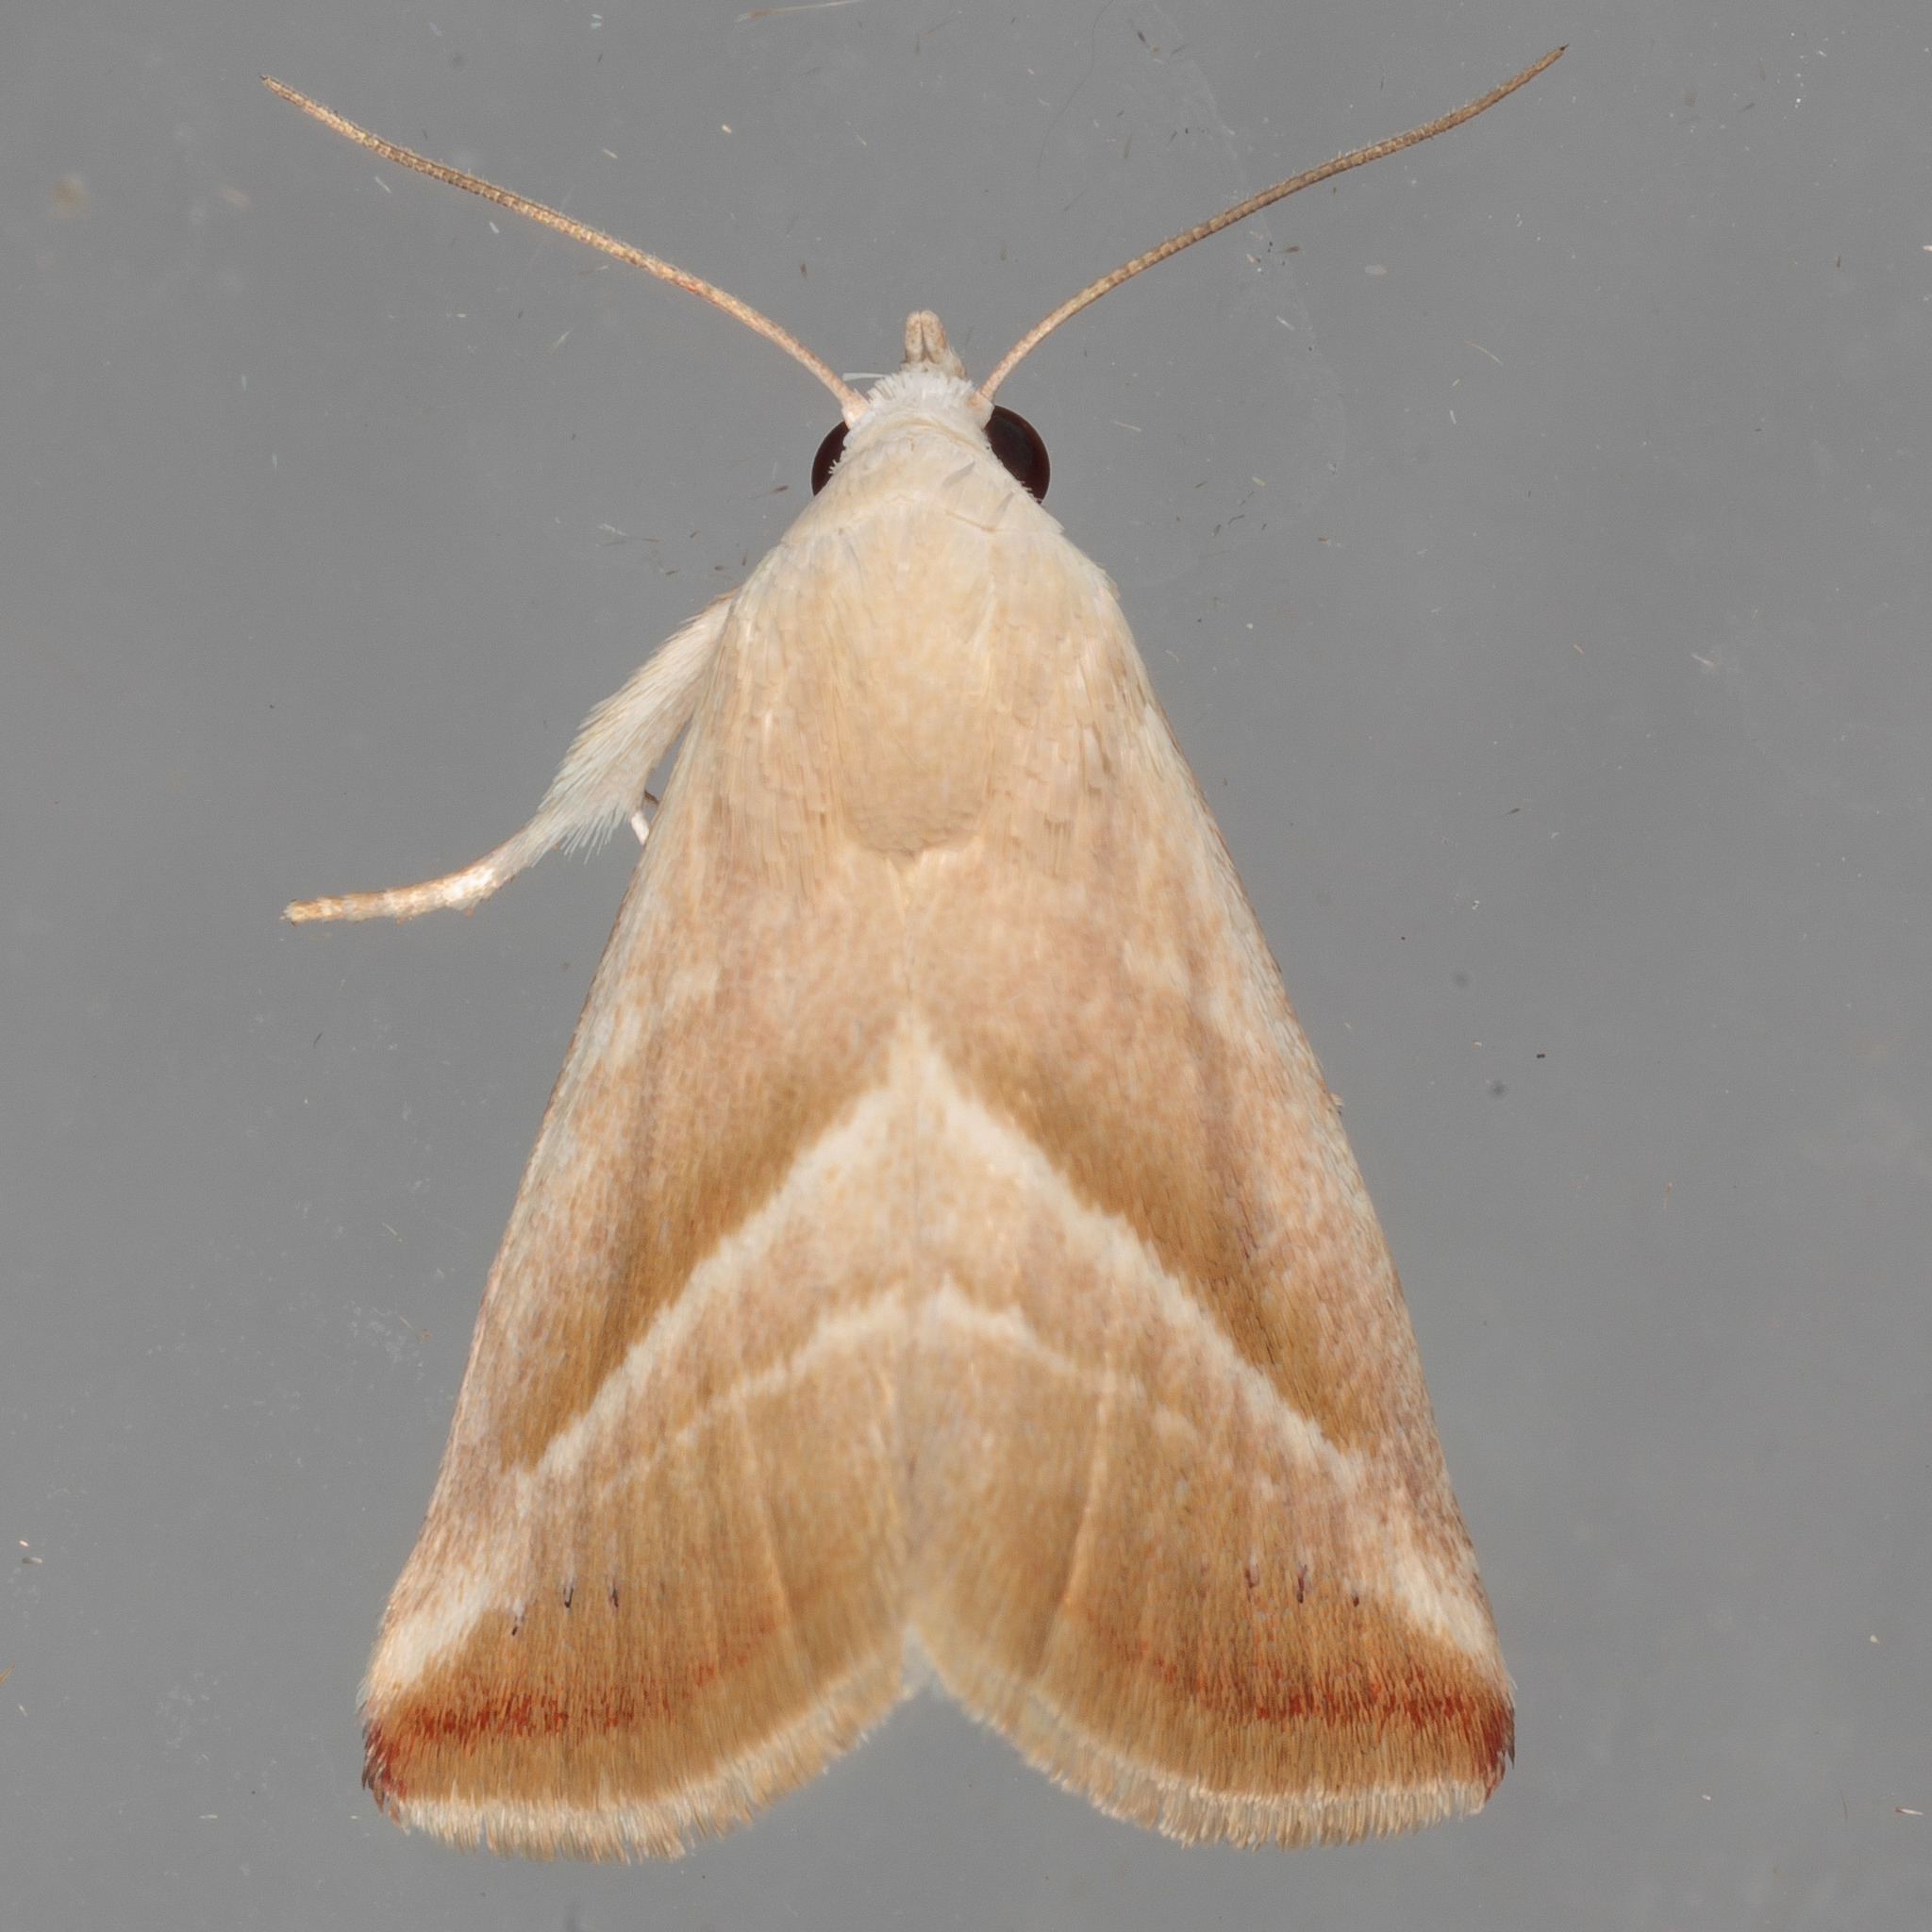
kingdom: Animalia
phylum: Arthropoda
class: Insecta
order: Lepidoptera
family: Noctuidae
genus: Eublemma
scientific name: Eublemma recta
